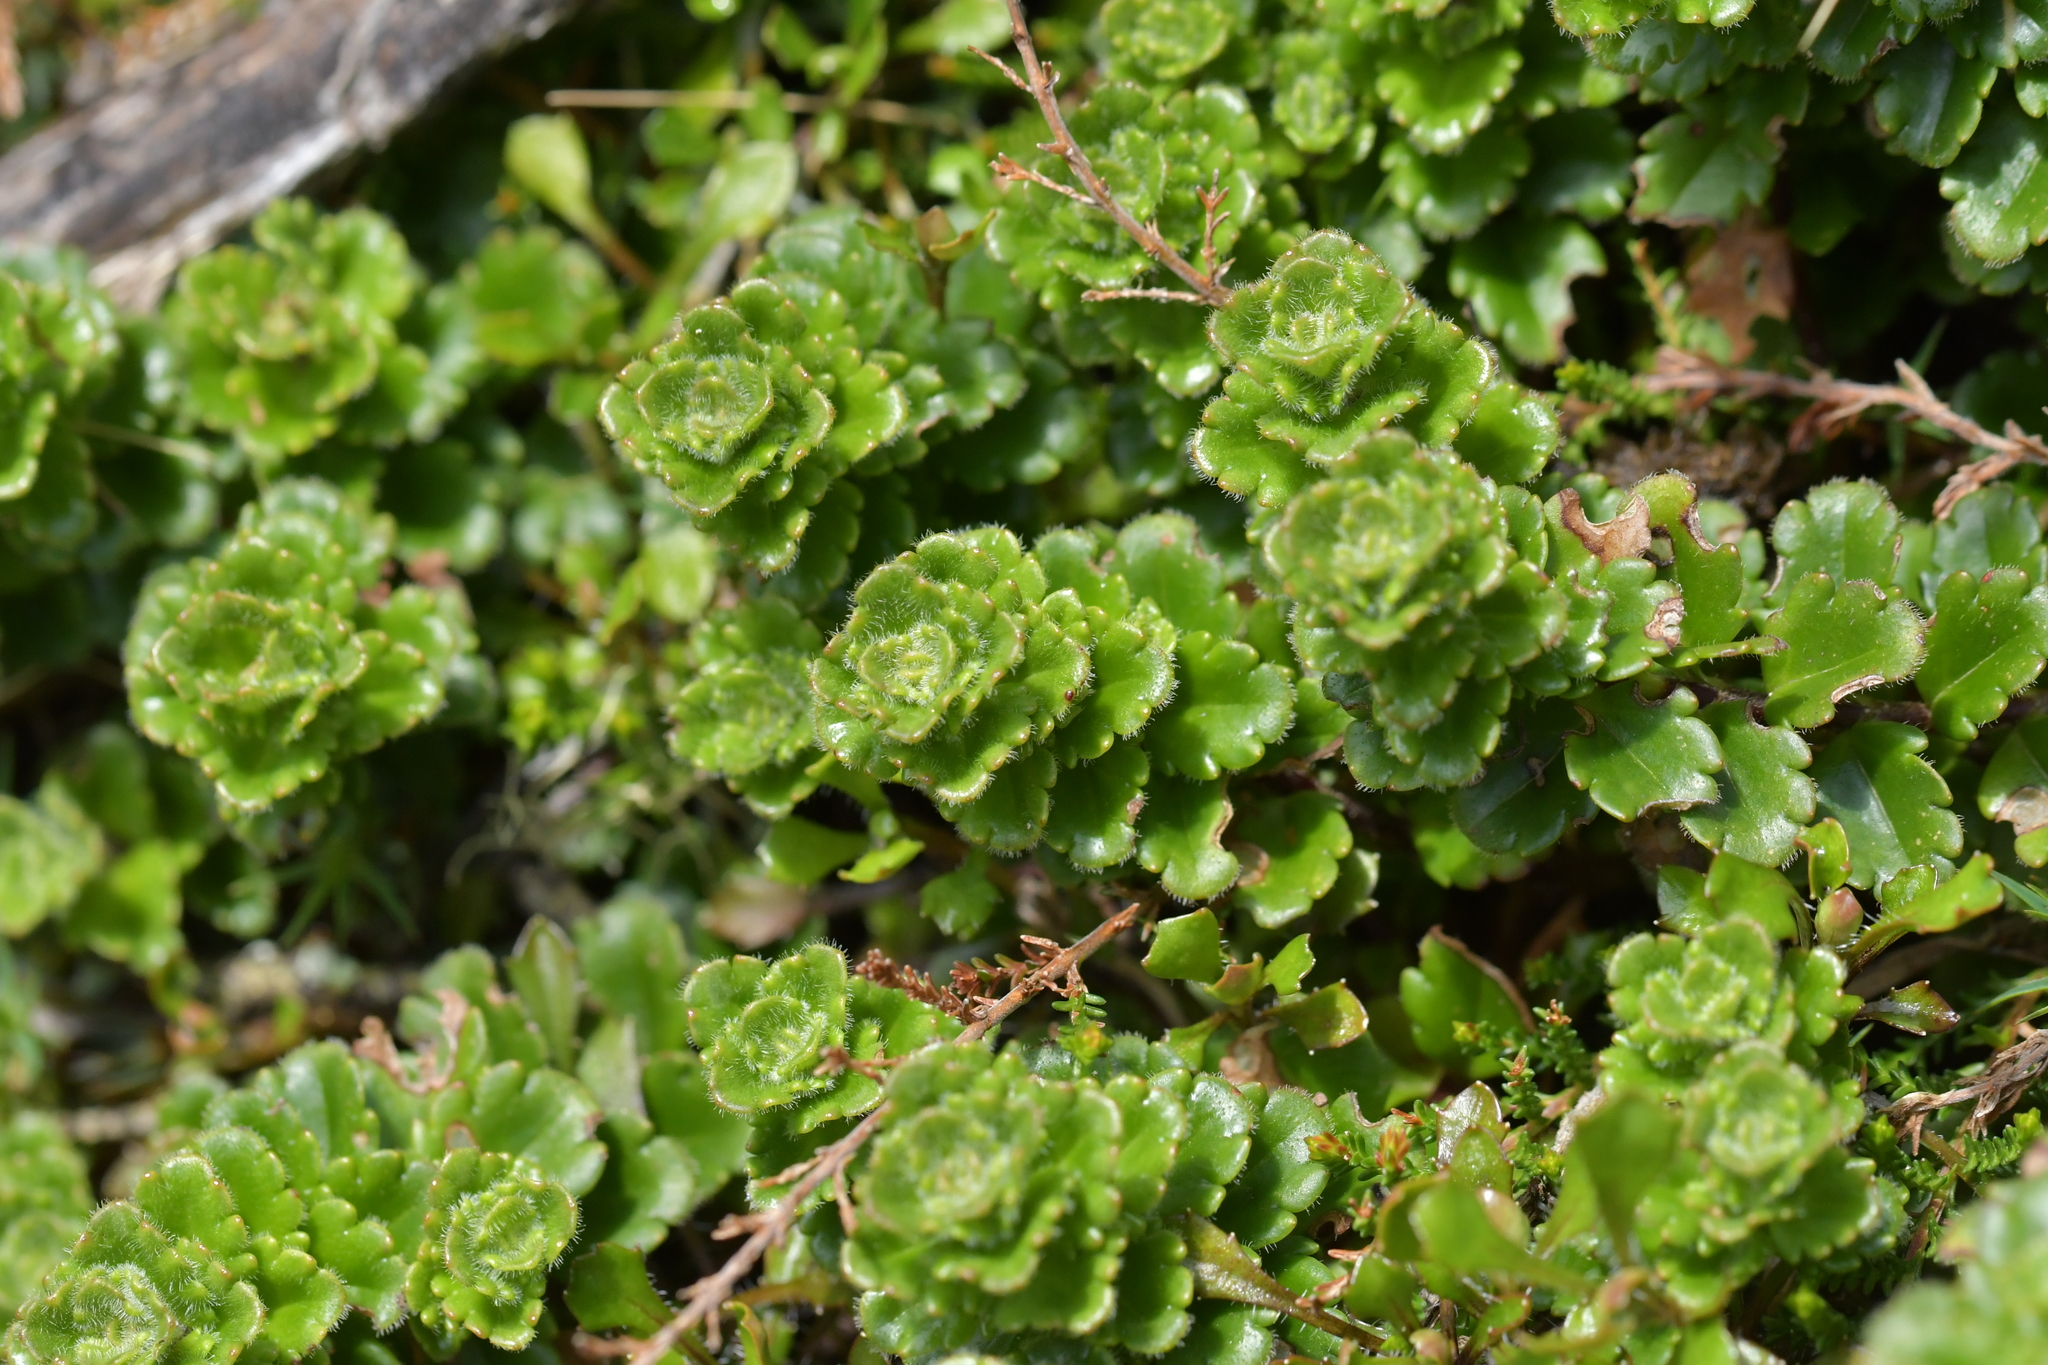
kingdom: Plantae
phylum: Tracheophyta
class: Magnoliopsida
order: Lamiales
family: Plantaginaceae
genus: Veronica
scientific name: Veronica hookeriana
